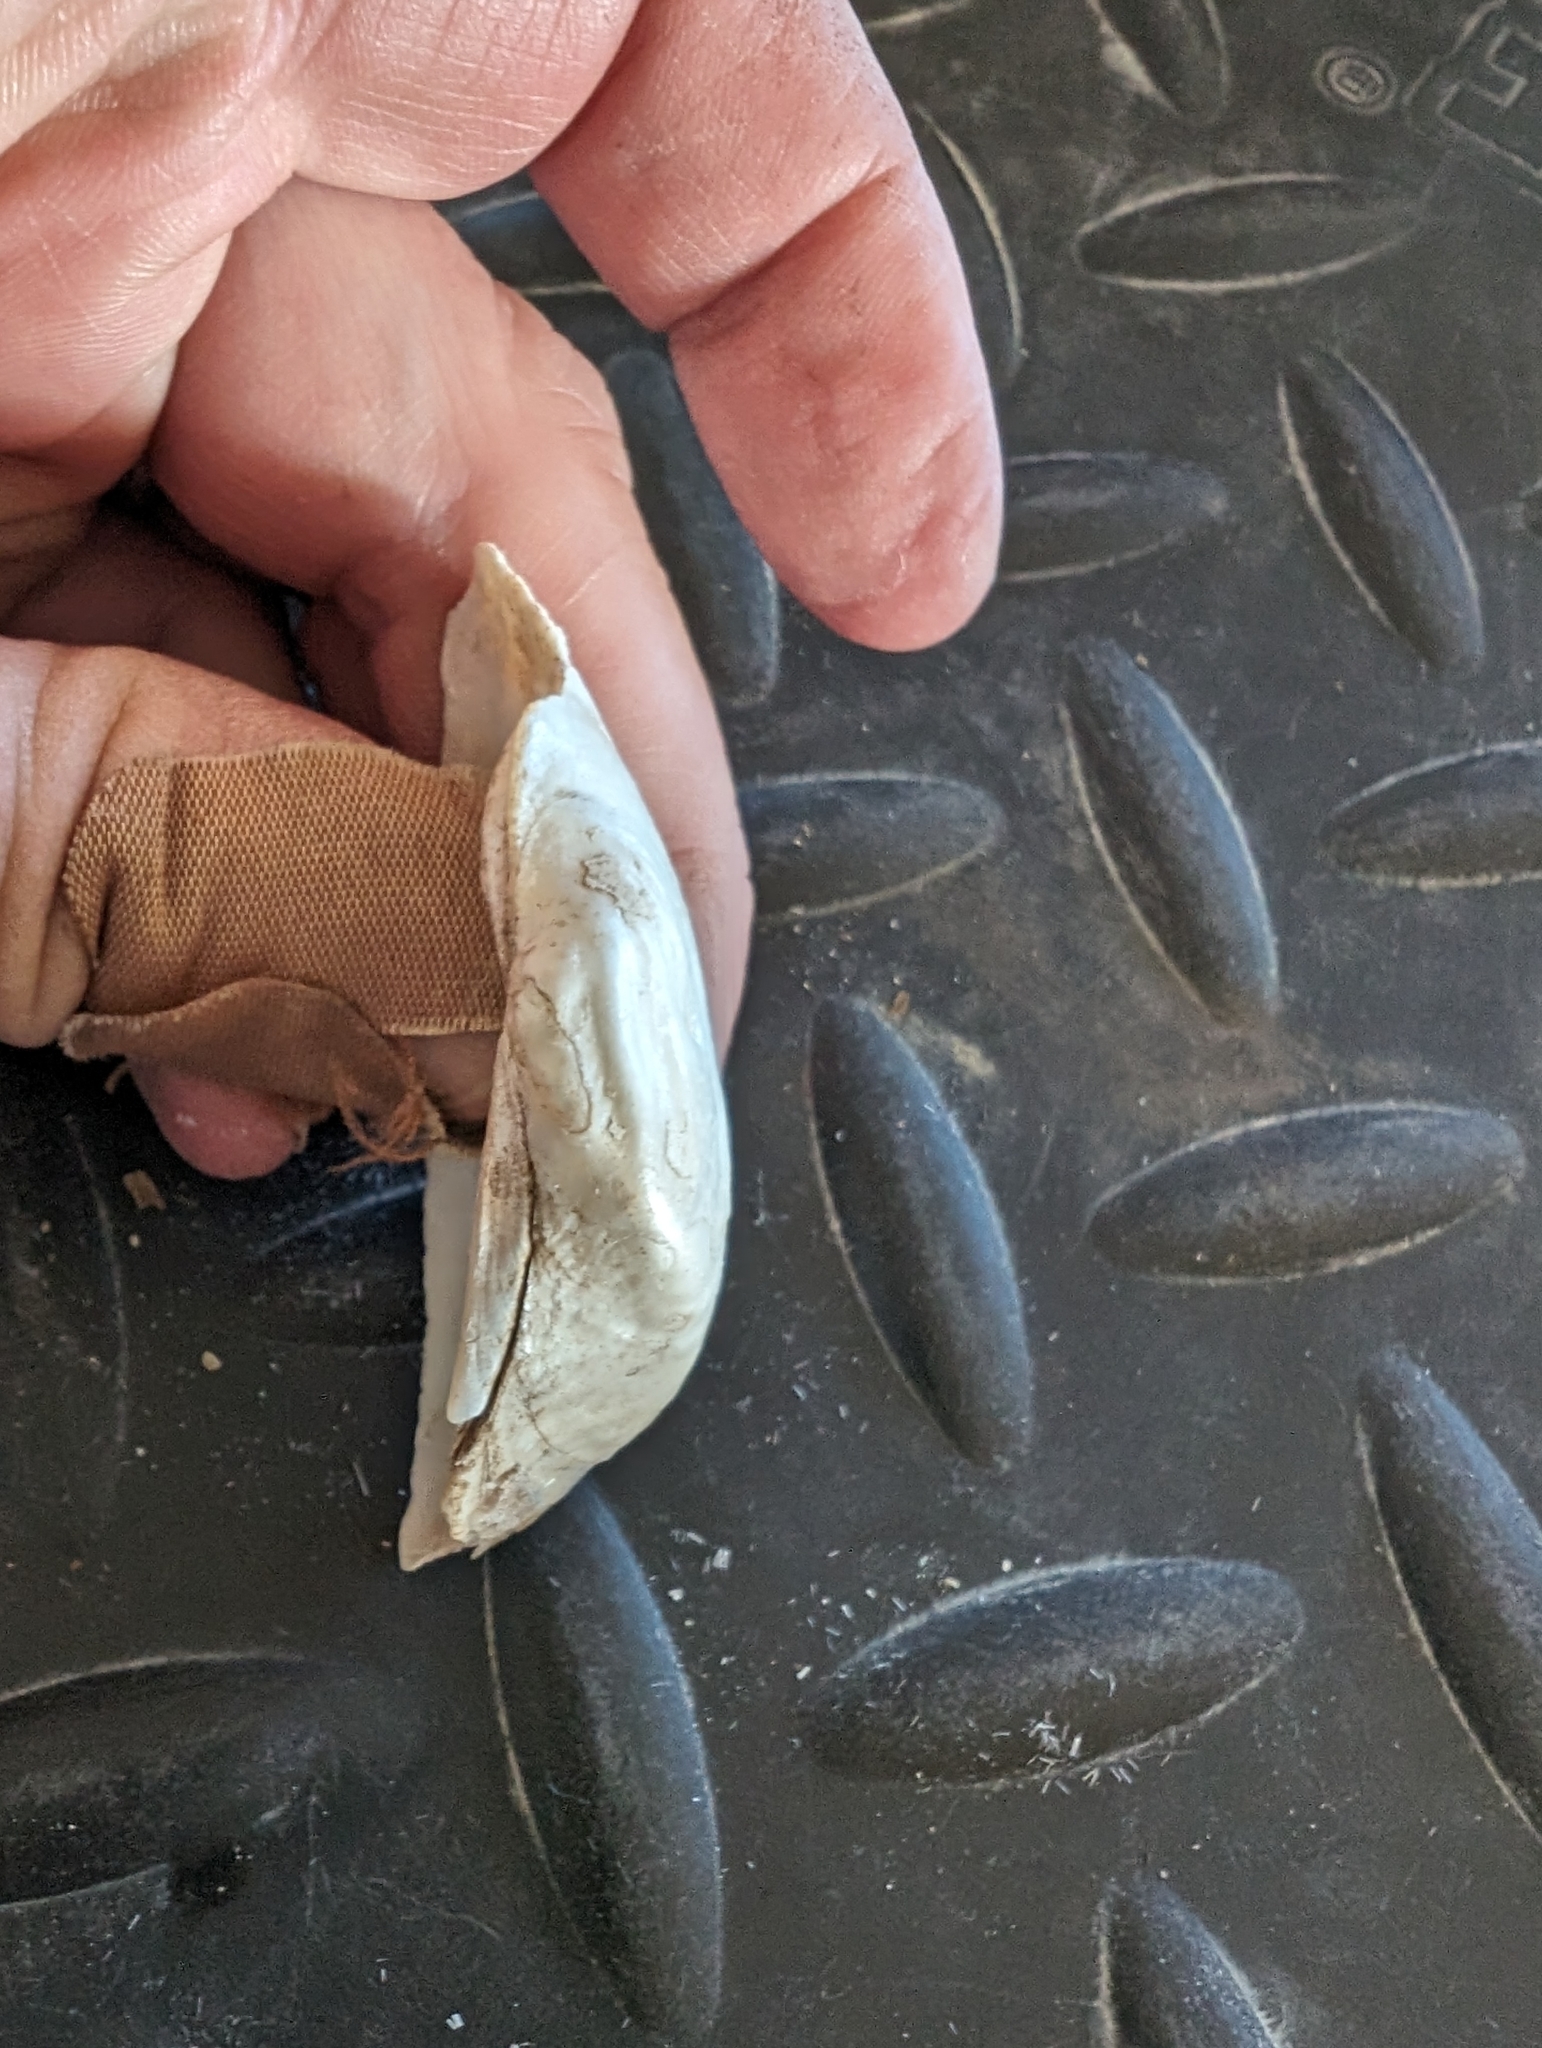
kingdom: Animalia
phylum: Mollusca
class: Bivalvia
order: Unionida
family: Unionidae
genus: Alasmidonta
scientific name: Alasmidonta marginata
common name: Elktoe
